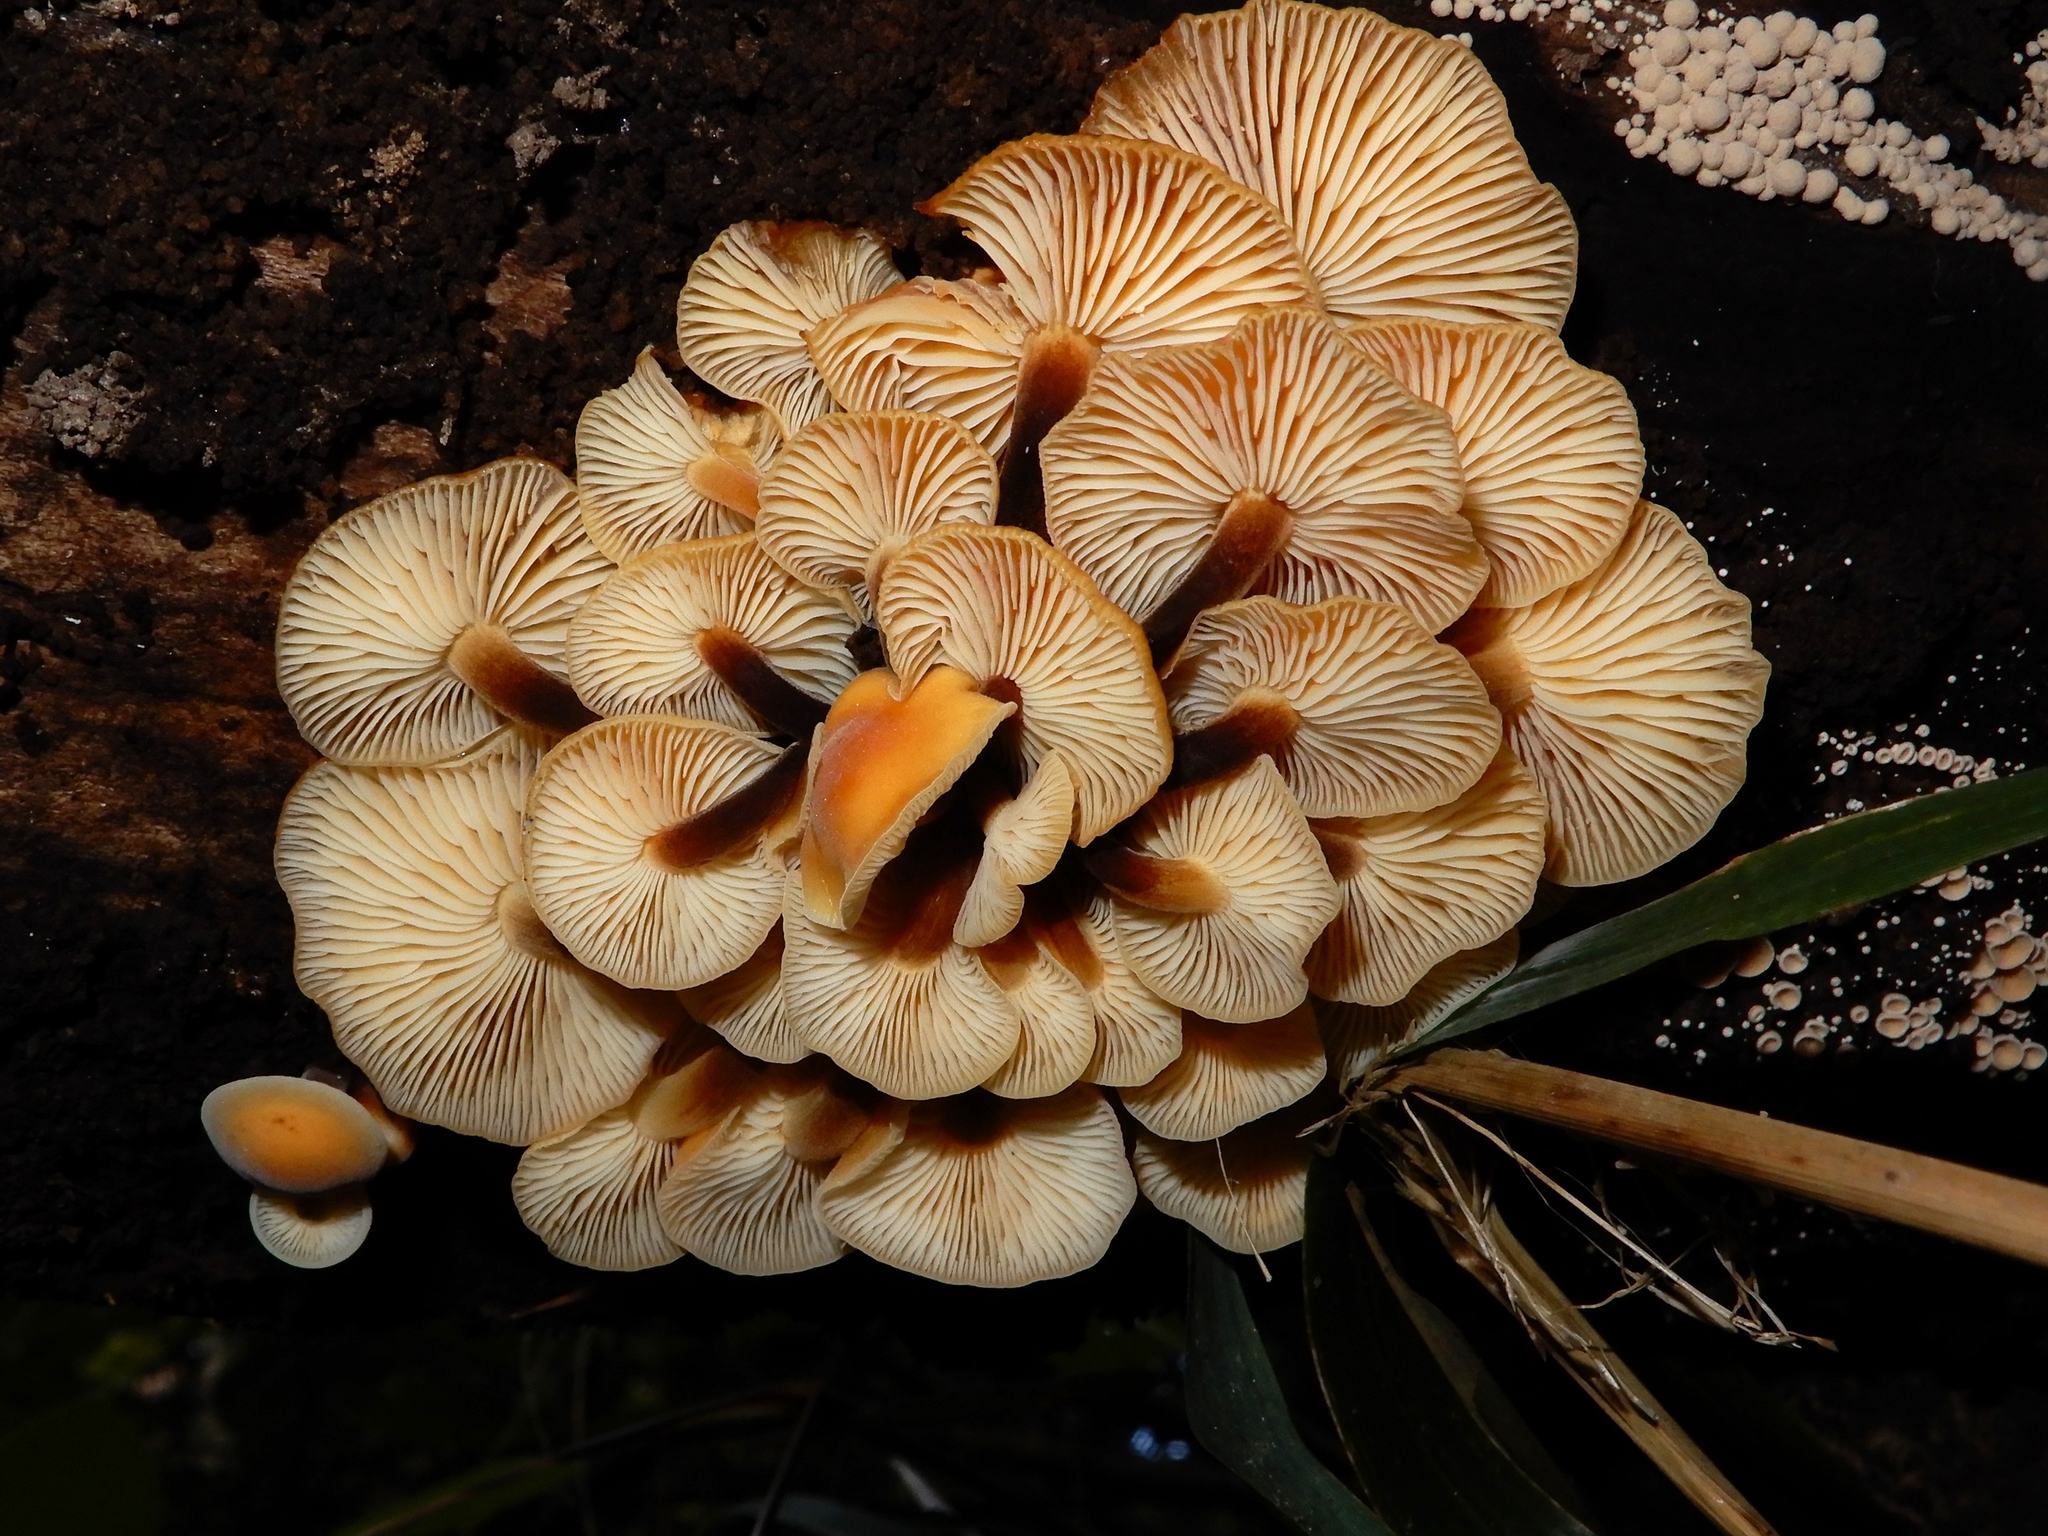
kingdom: Fungi
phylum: Basidiomycota
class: Agaricomycetes
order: Agaricales
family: Physalacriaceae
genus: Flammulina
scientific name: Flammulina velutipes
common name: Velvet shank
